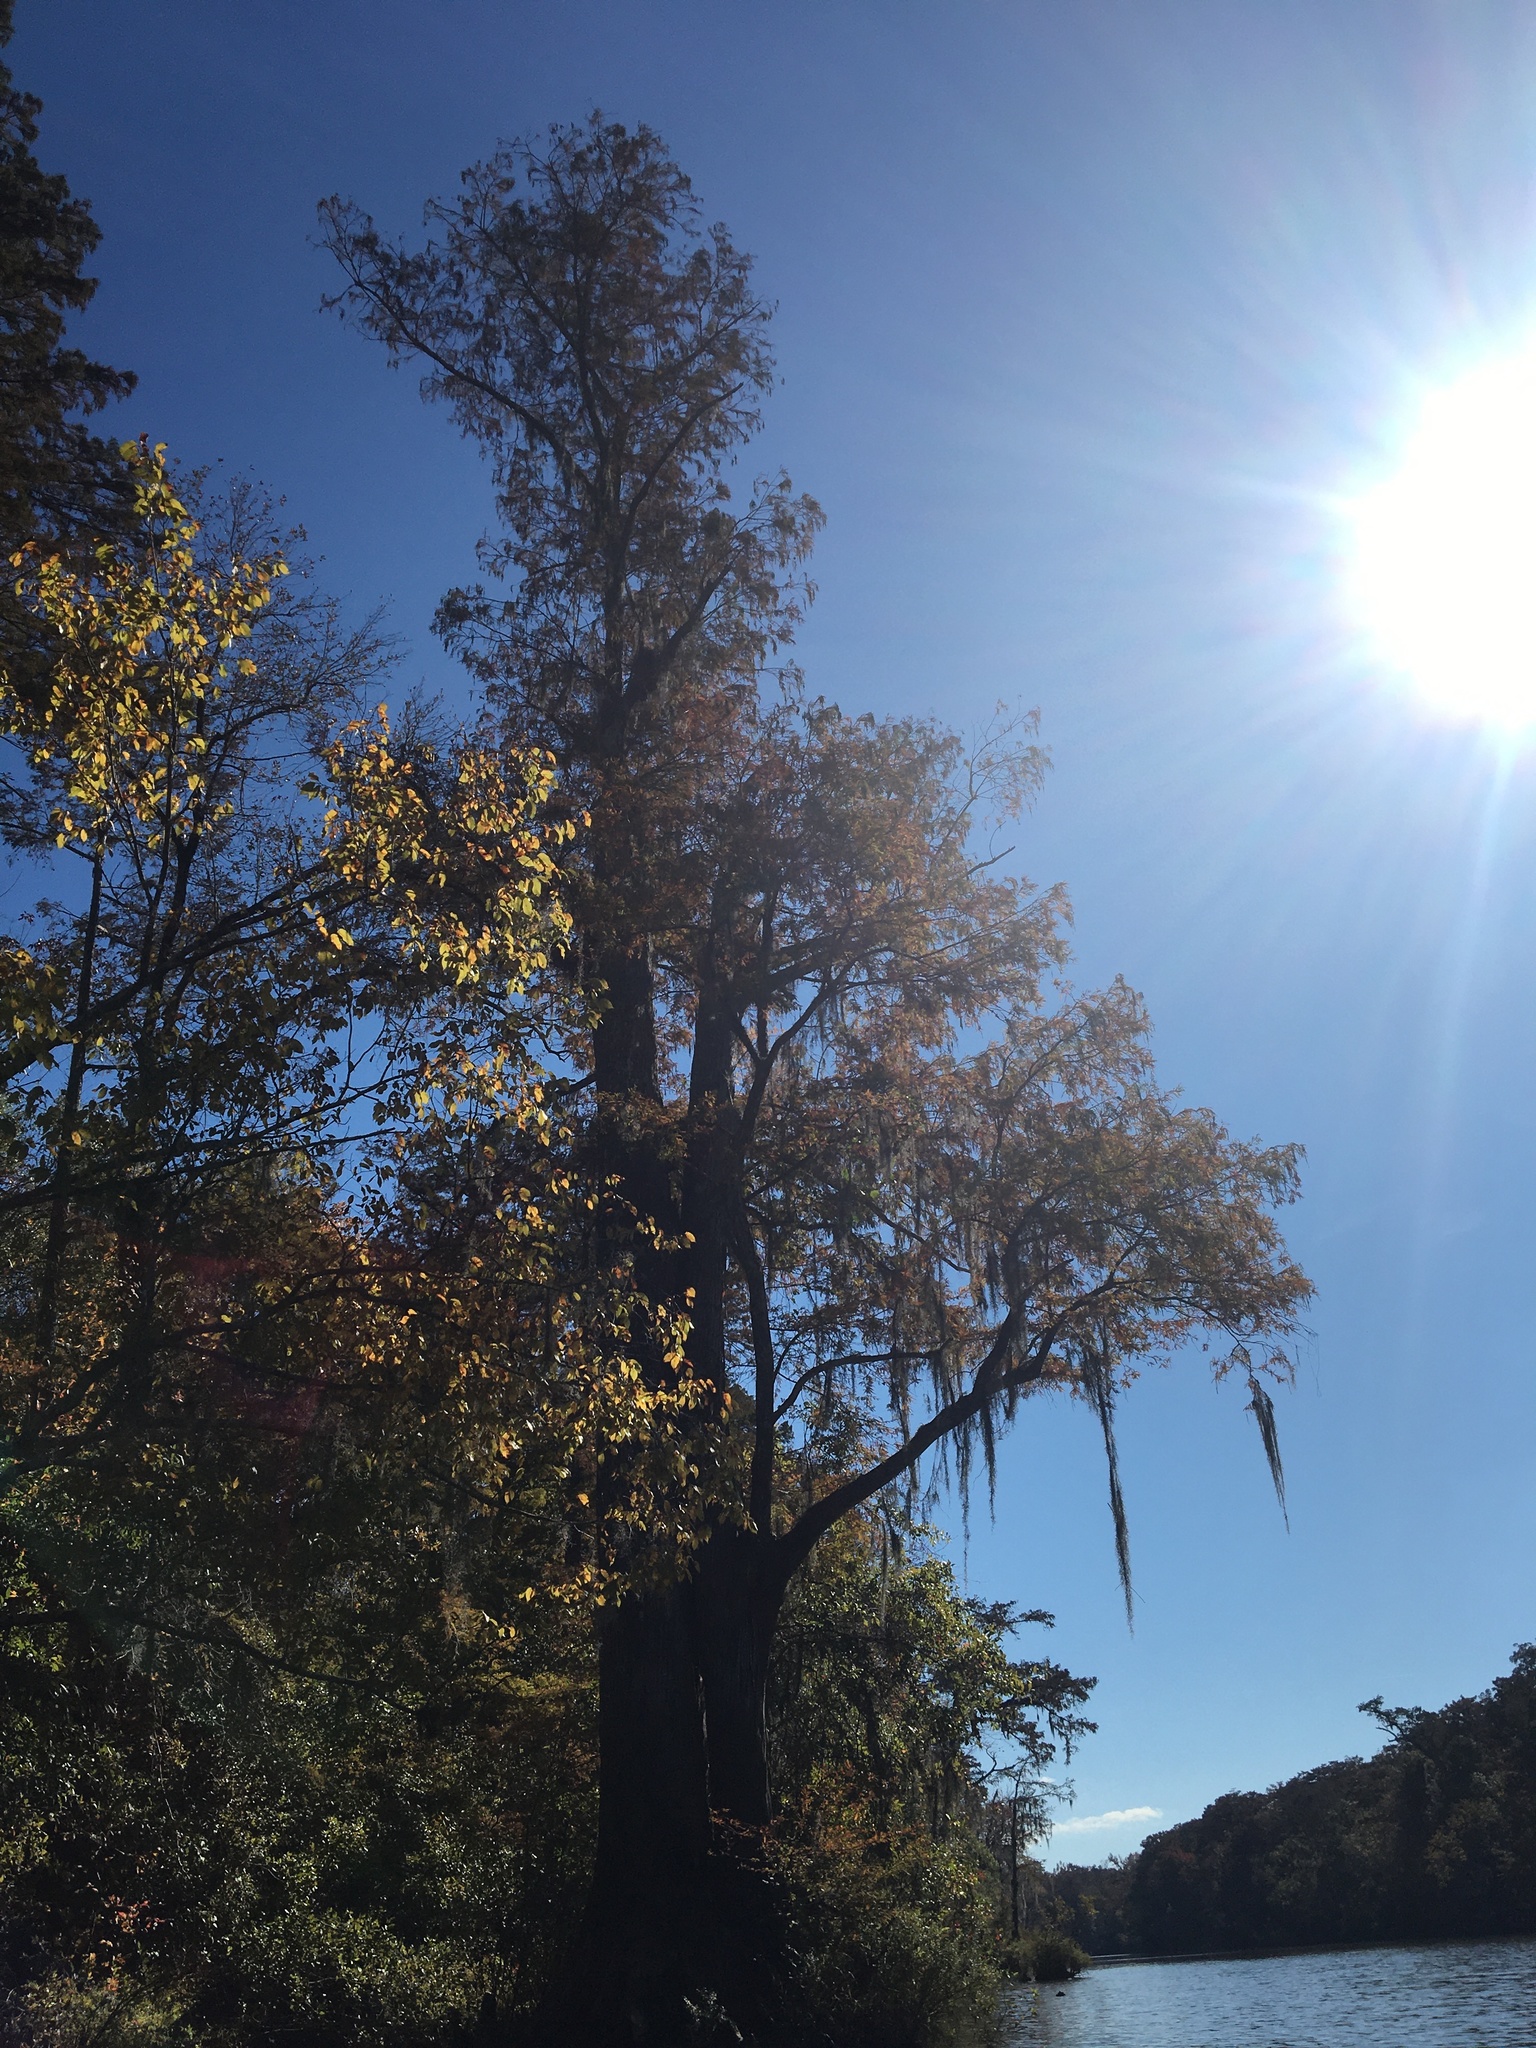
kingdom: Plantae
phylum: Tracheophyta
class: Pinopsida
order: Pinales
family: Cupressaceae
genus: Taxodium
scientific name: Taxodium distichum
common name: Bald cypress
